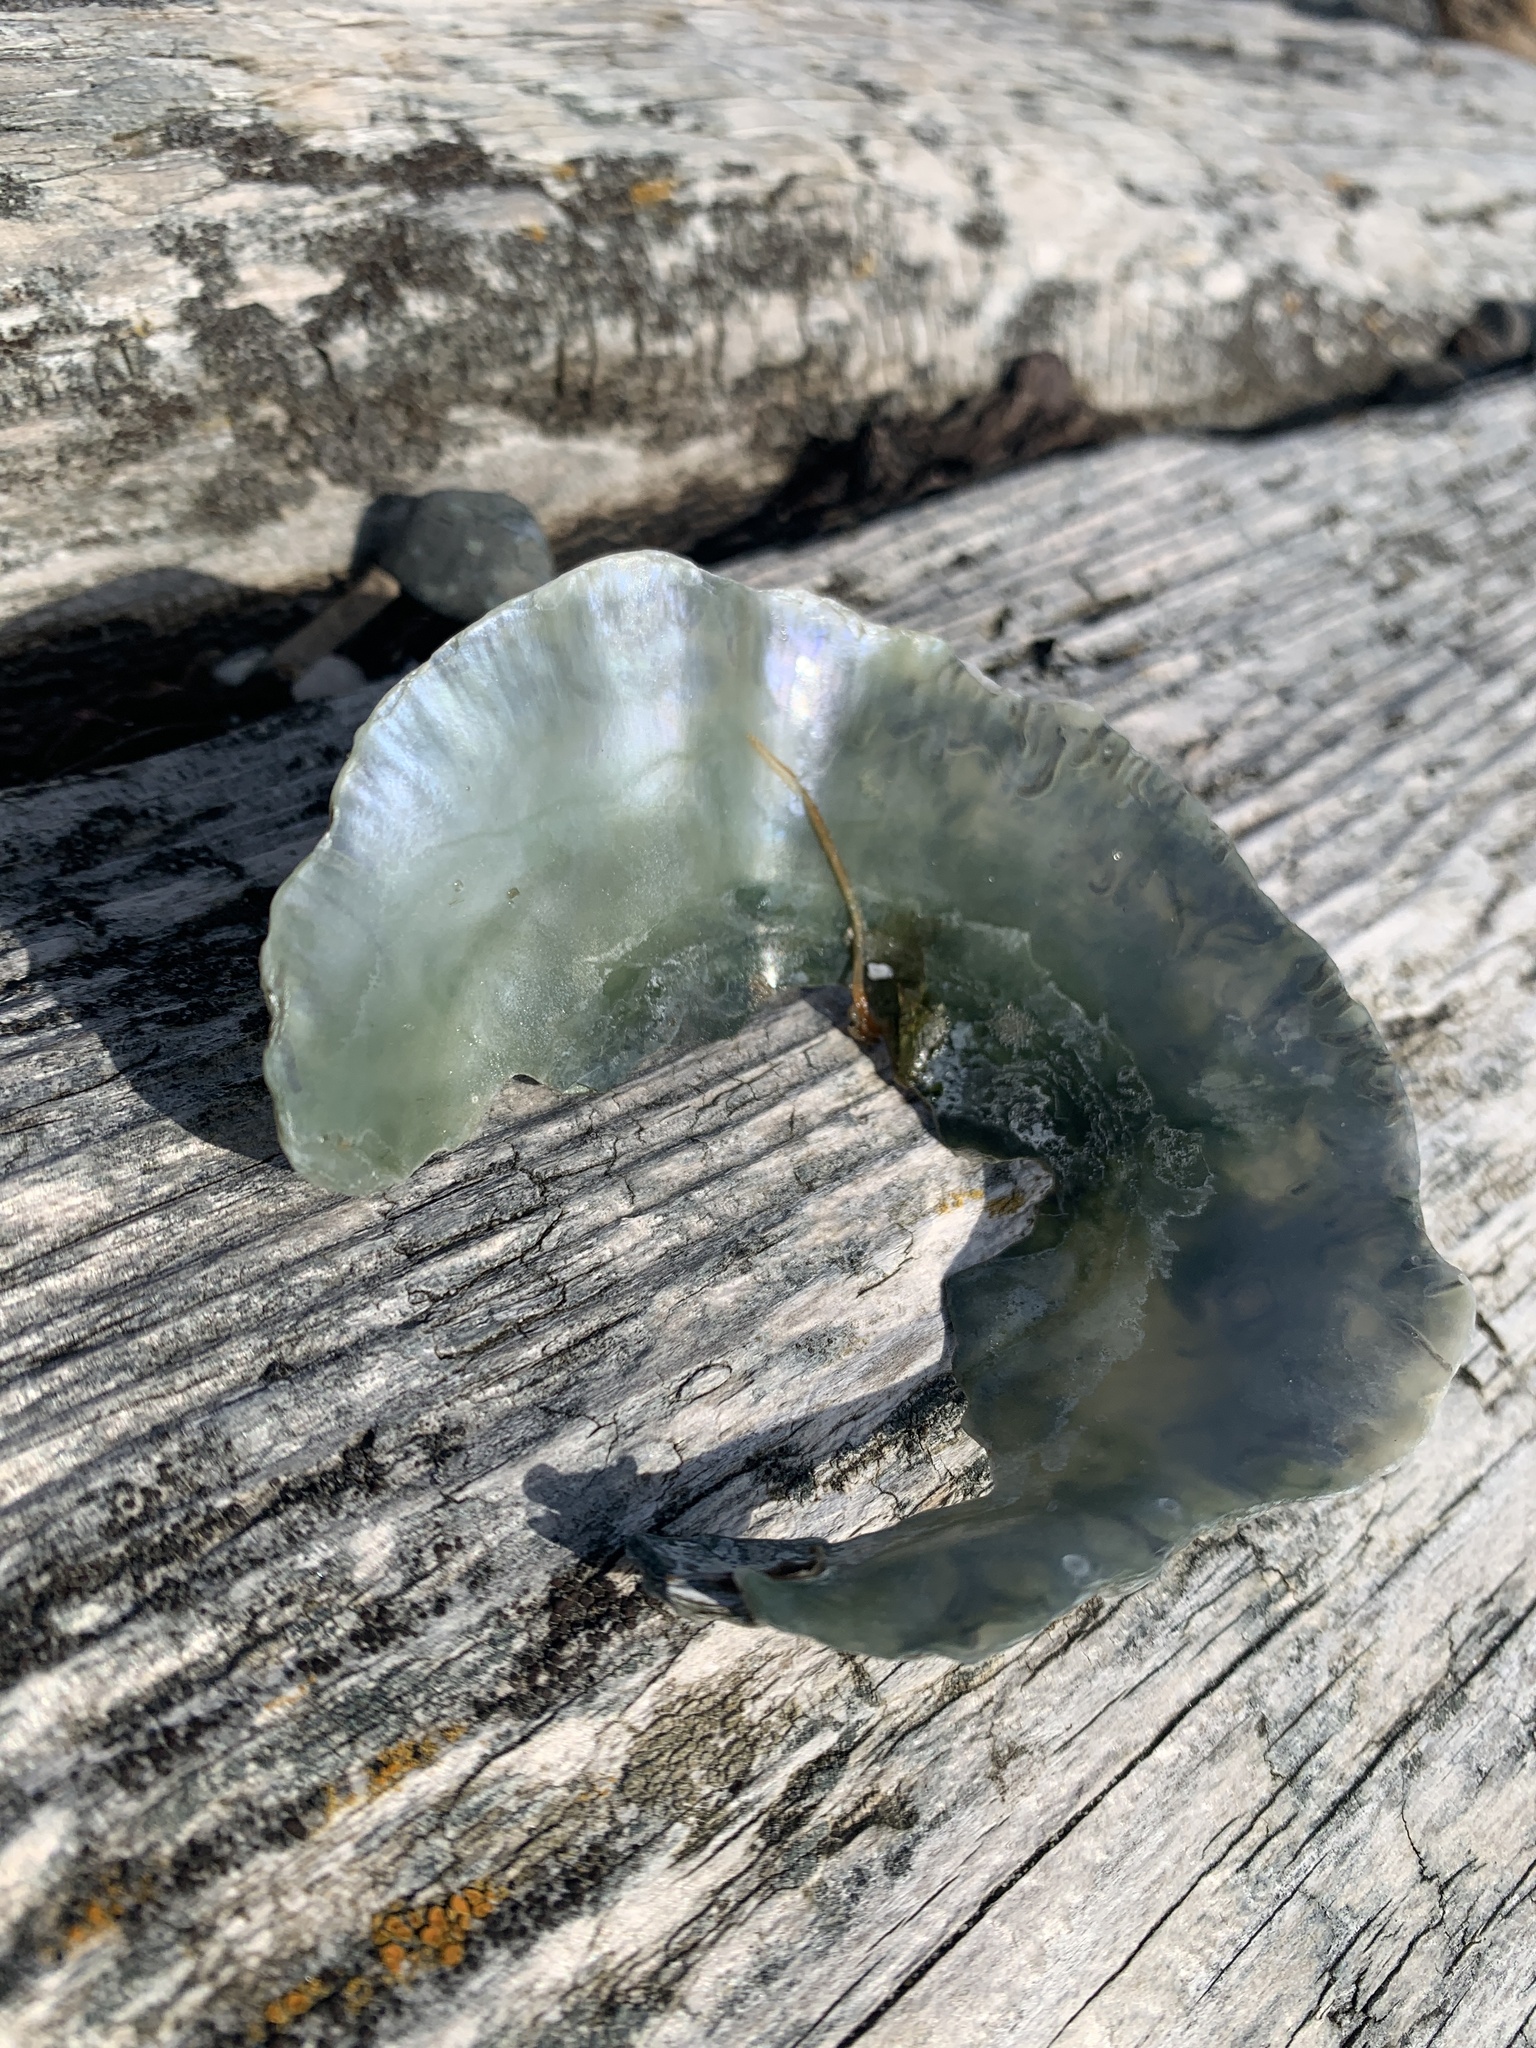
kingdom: Animalia
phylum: Mollusca
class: Bivalvia
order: Pectinida
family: Anomiidae
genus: Pododesmus
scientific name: Pododesmus macrochisma
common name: Alaska jingle
